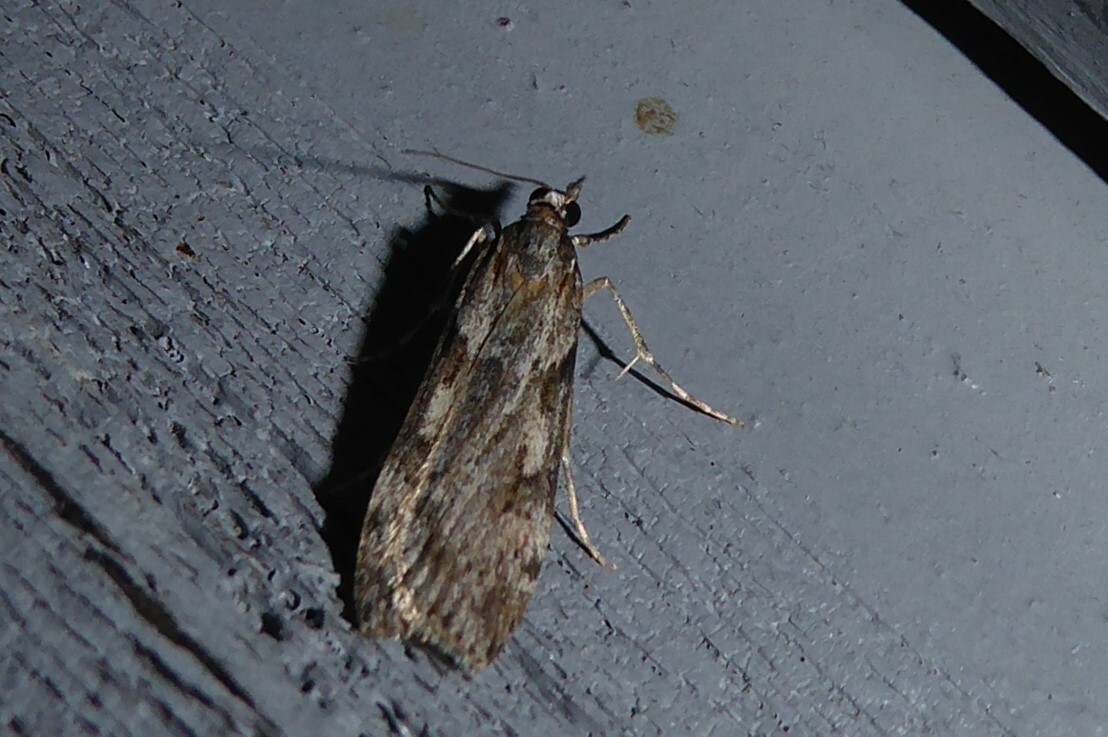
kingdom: Animalia
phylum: Arthropoda
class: Insecta
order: Lepidoptera
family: Crambidae
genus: Scoparia
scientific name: Scoparia halopis
